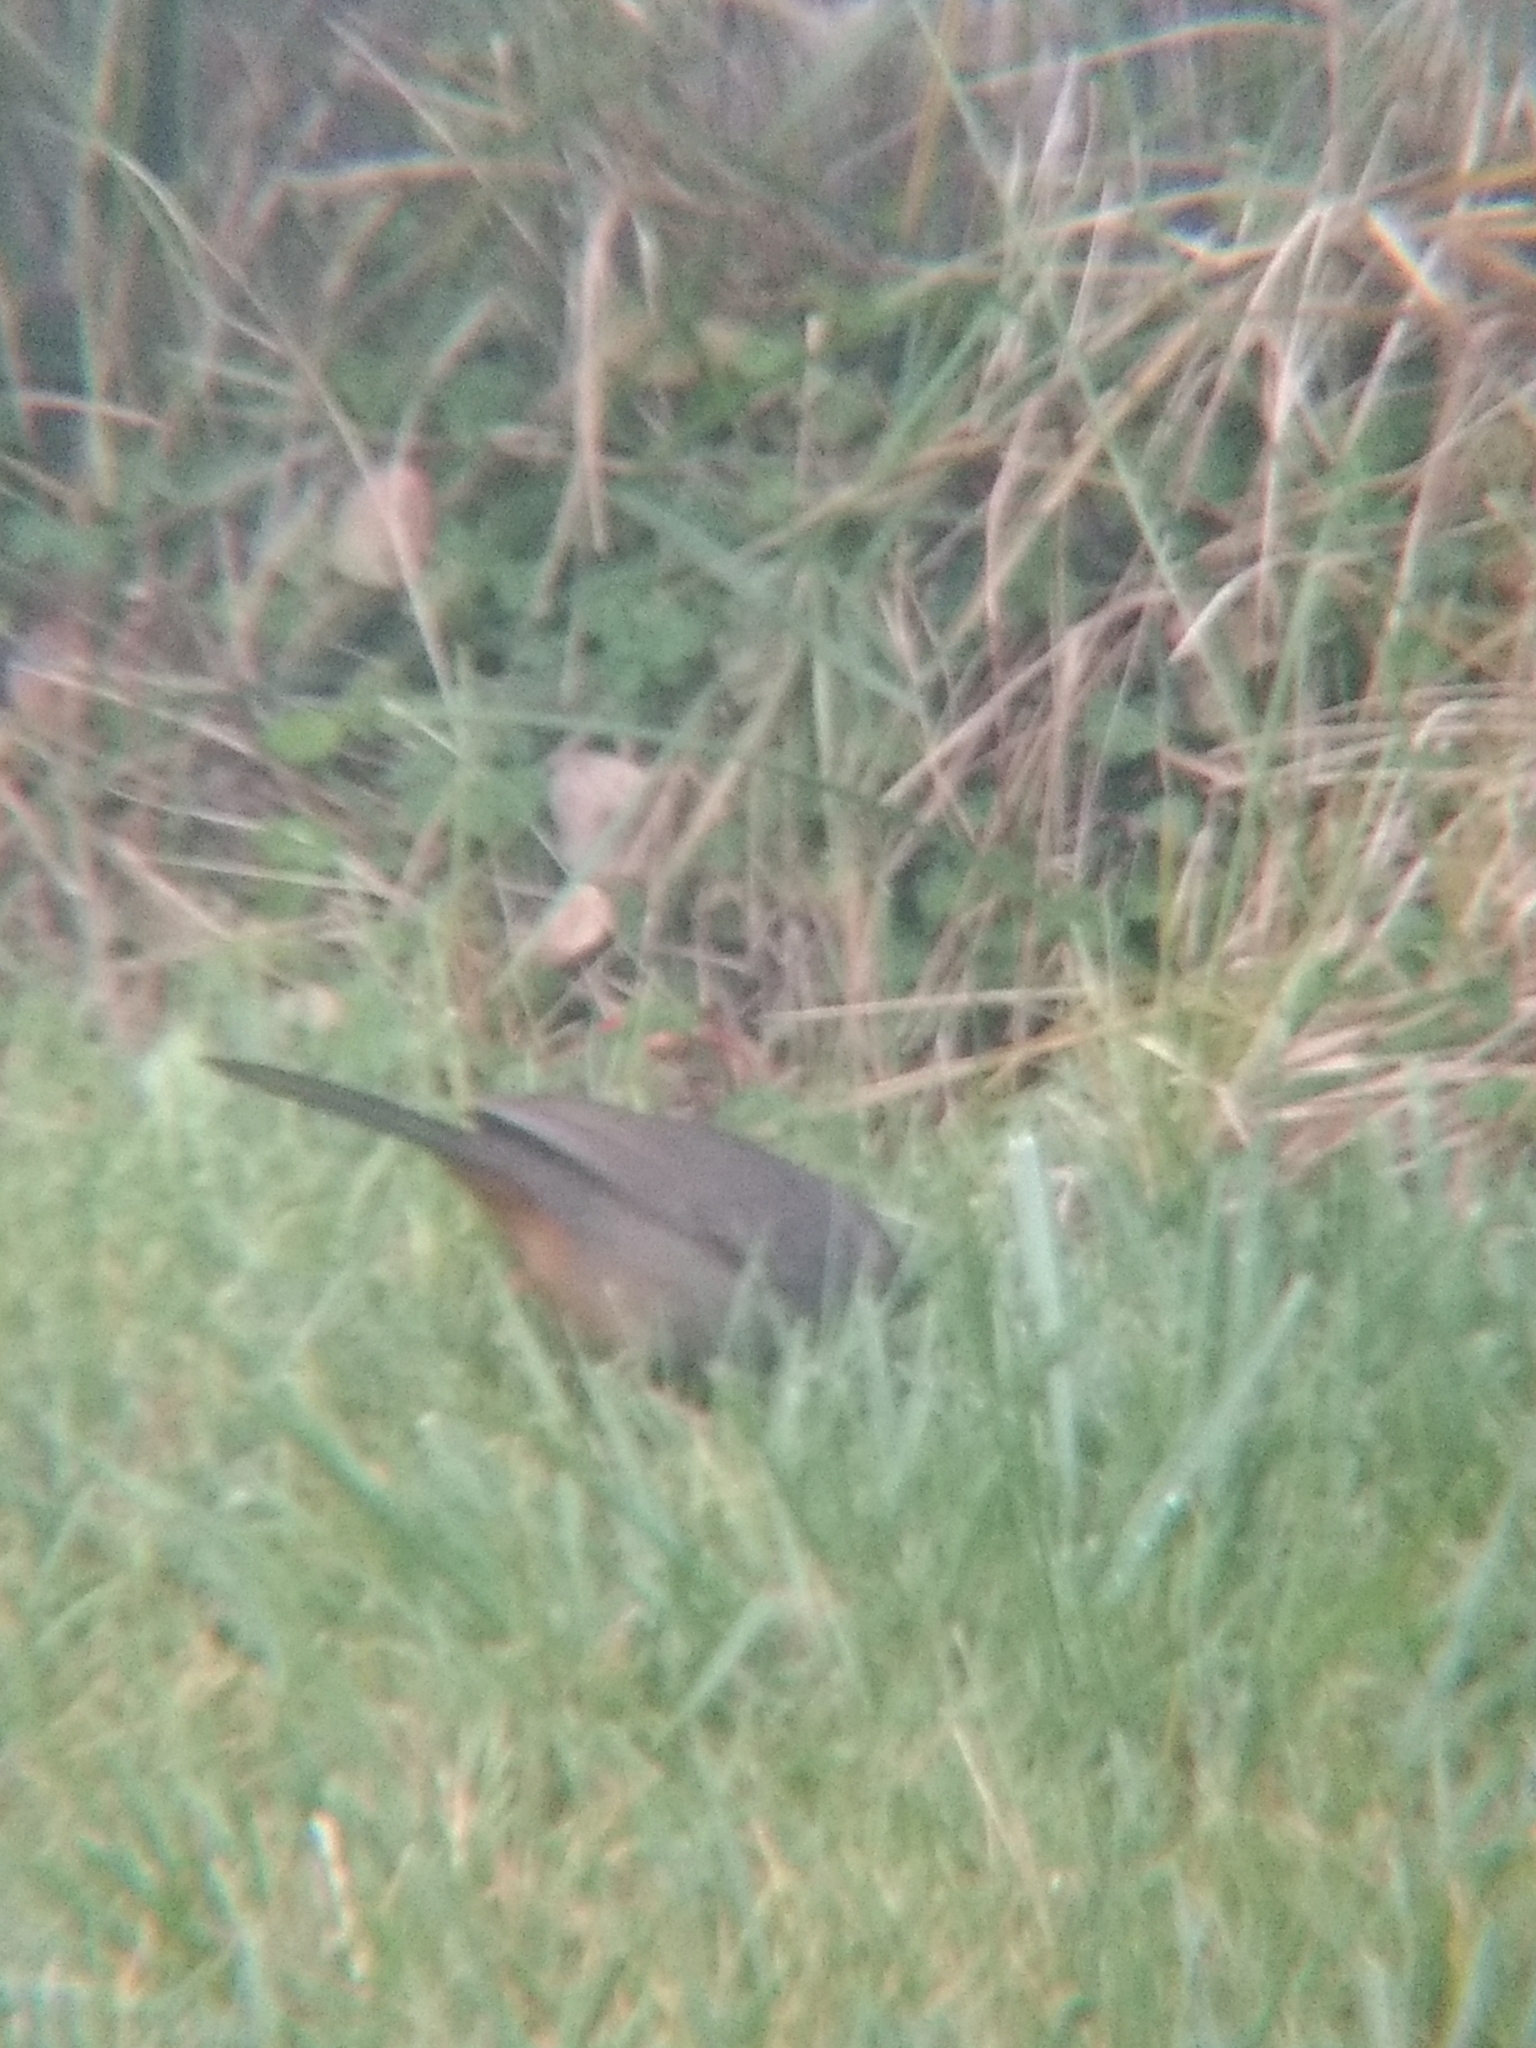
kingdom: Animalia
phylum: Chordata
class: Aves
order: Passeriformes
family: Passerellidae
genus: Melozone
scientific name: Melozone crissalis
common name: California towhee
